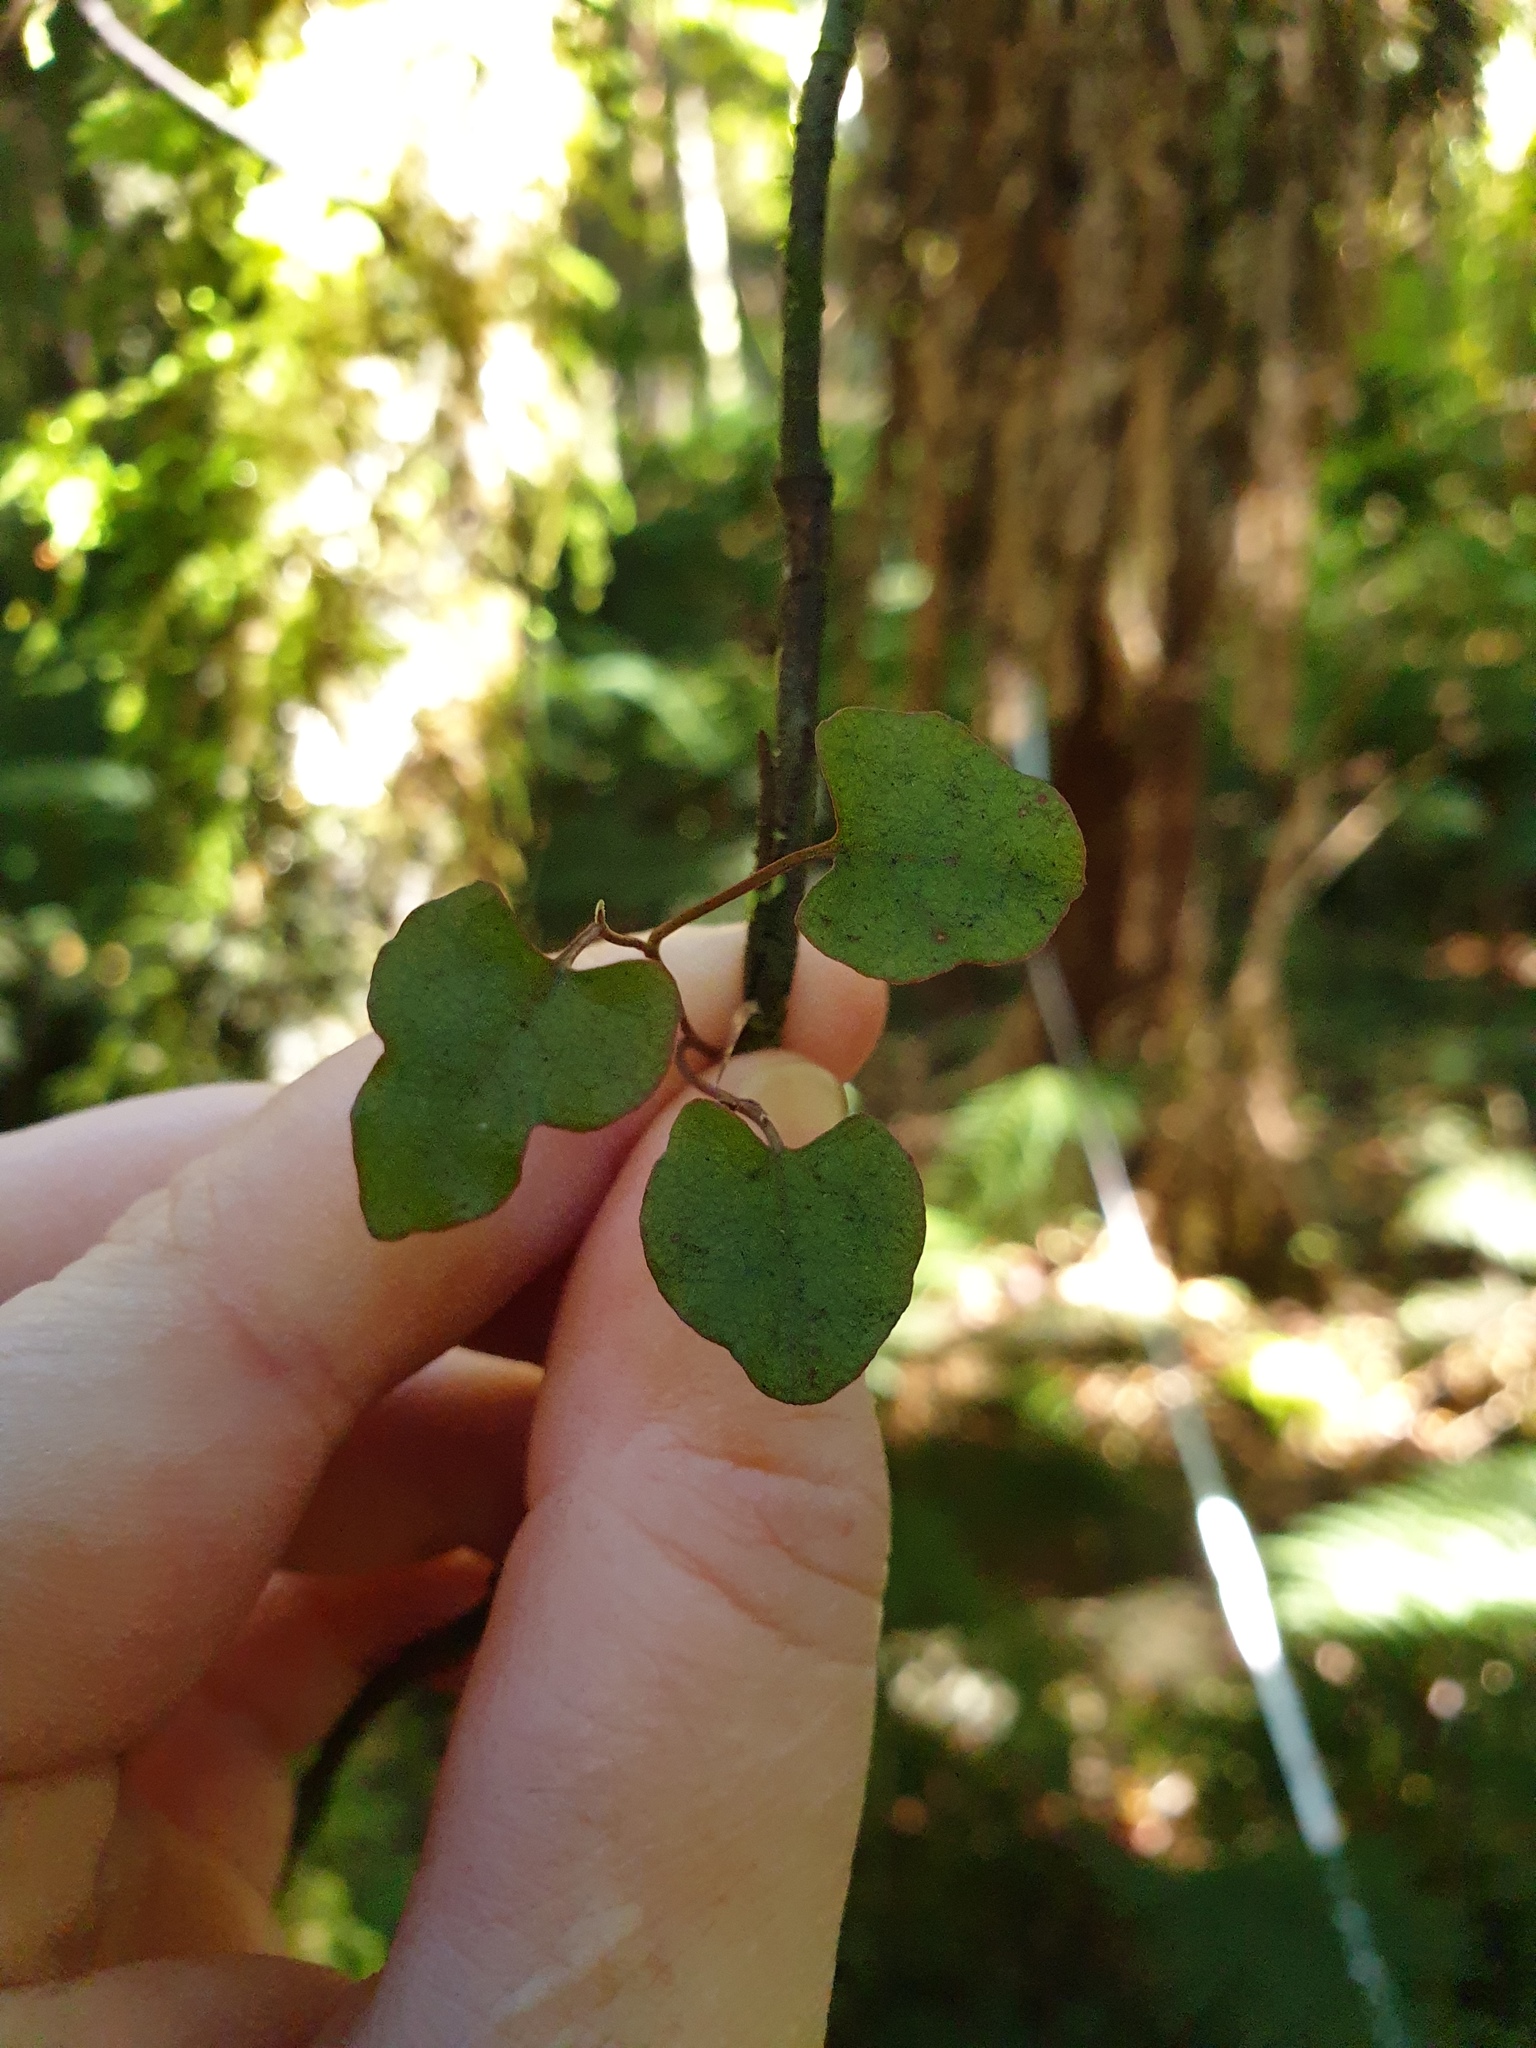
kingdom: Plantae
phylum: Tracheophyta
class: Magnoliopsida
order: Caryophyllales
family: Polygonaceae
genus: Muehlenbeckia
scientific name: Muehlenbeckia
